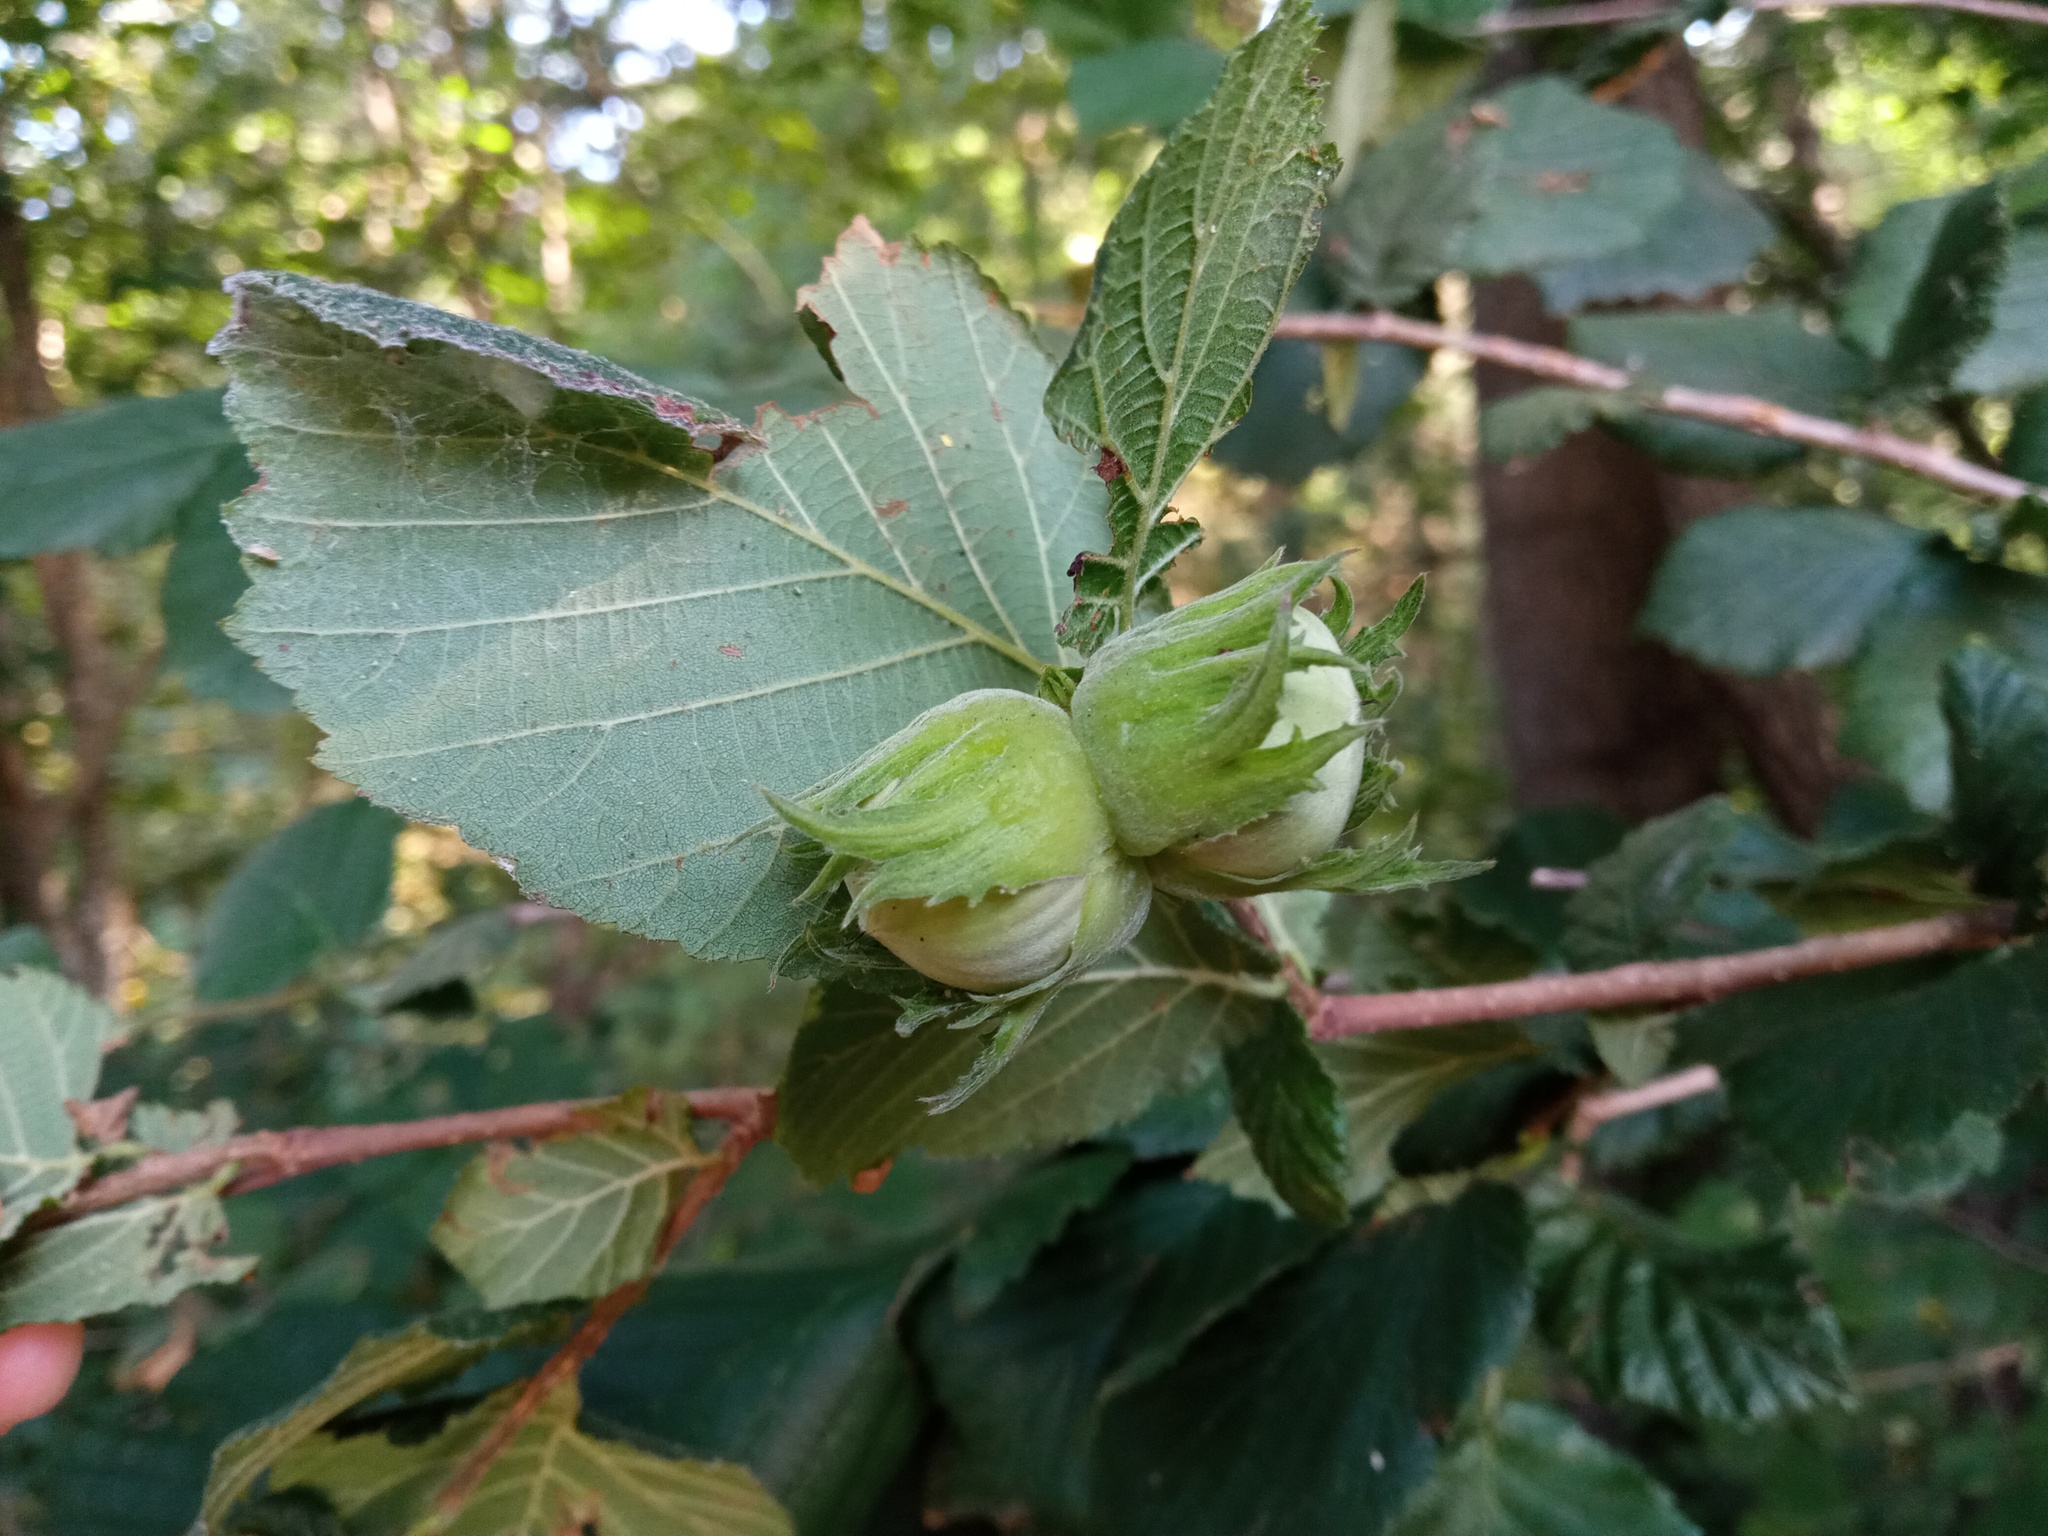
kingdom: Plantae
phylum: Tracheophyta
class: Magnoliopsida
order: Fagales
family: Betulaceae
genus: Corylus
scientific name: Corylus avellana
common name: European hazel
